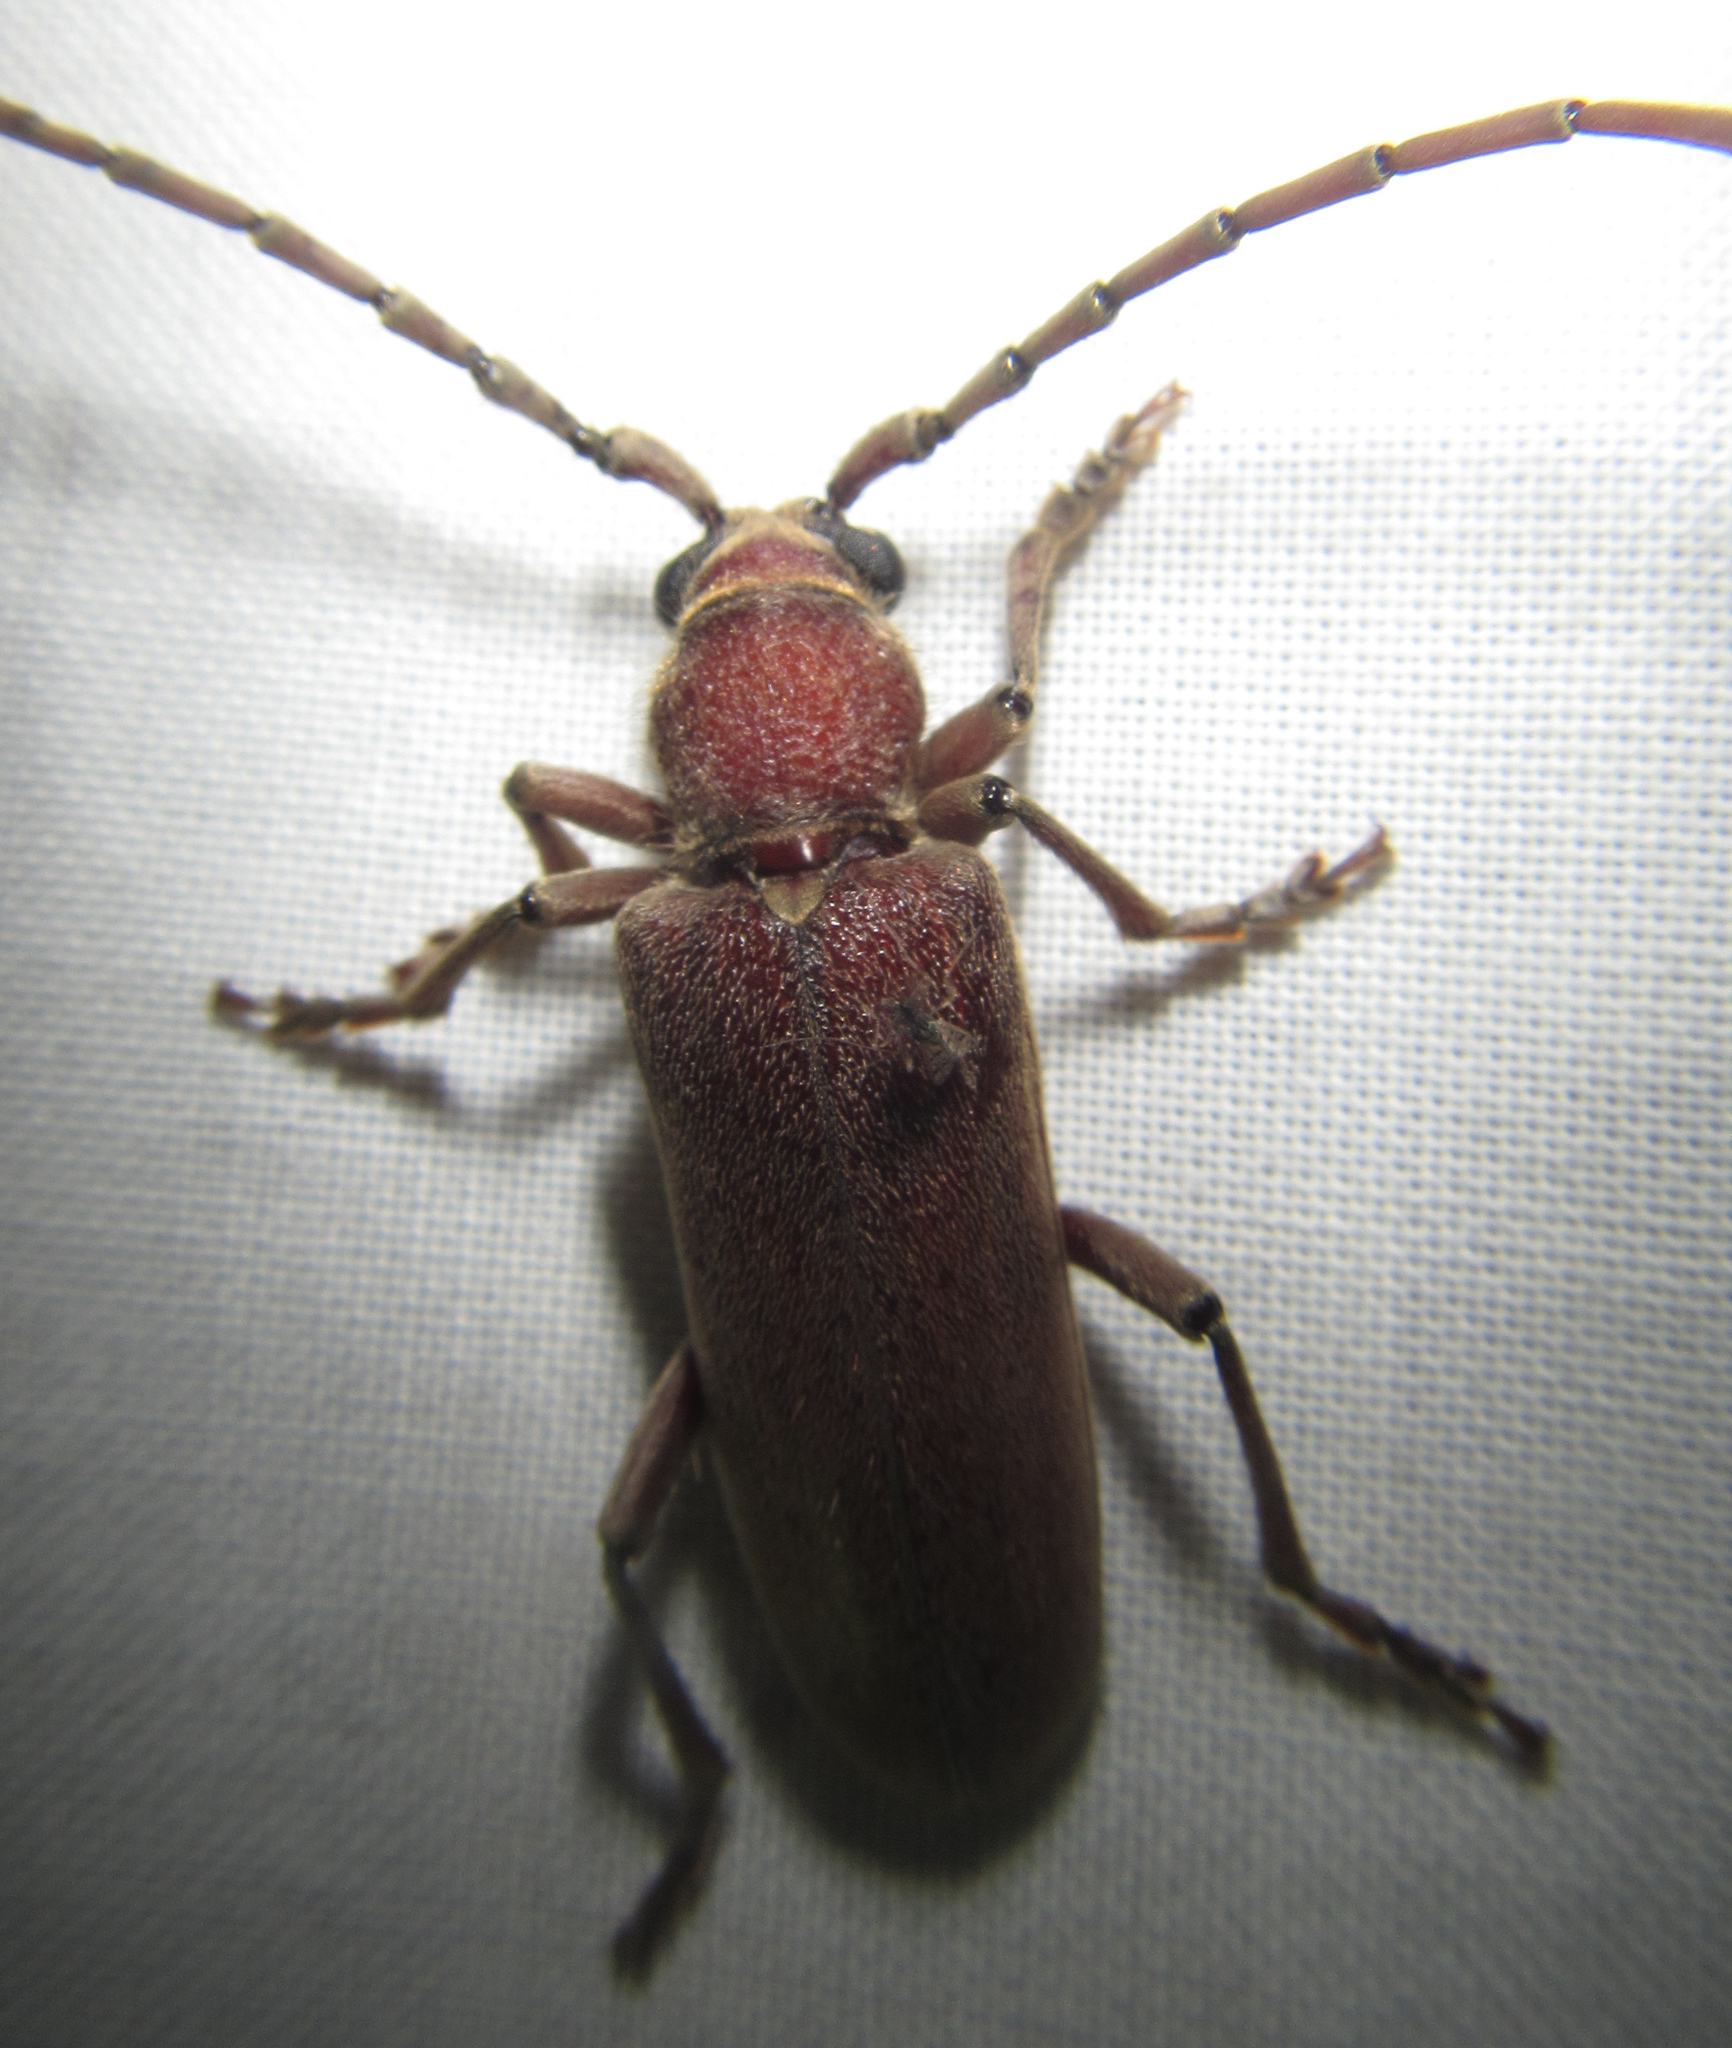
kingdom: Animalia
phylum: Arthropoda
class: Insecta
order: Coleoptera
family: Cerambycidae
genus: Africophanes
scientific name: Africophanes amicus
